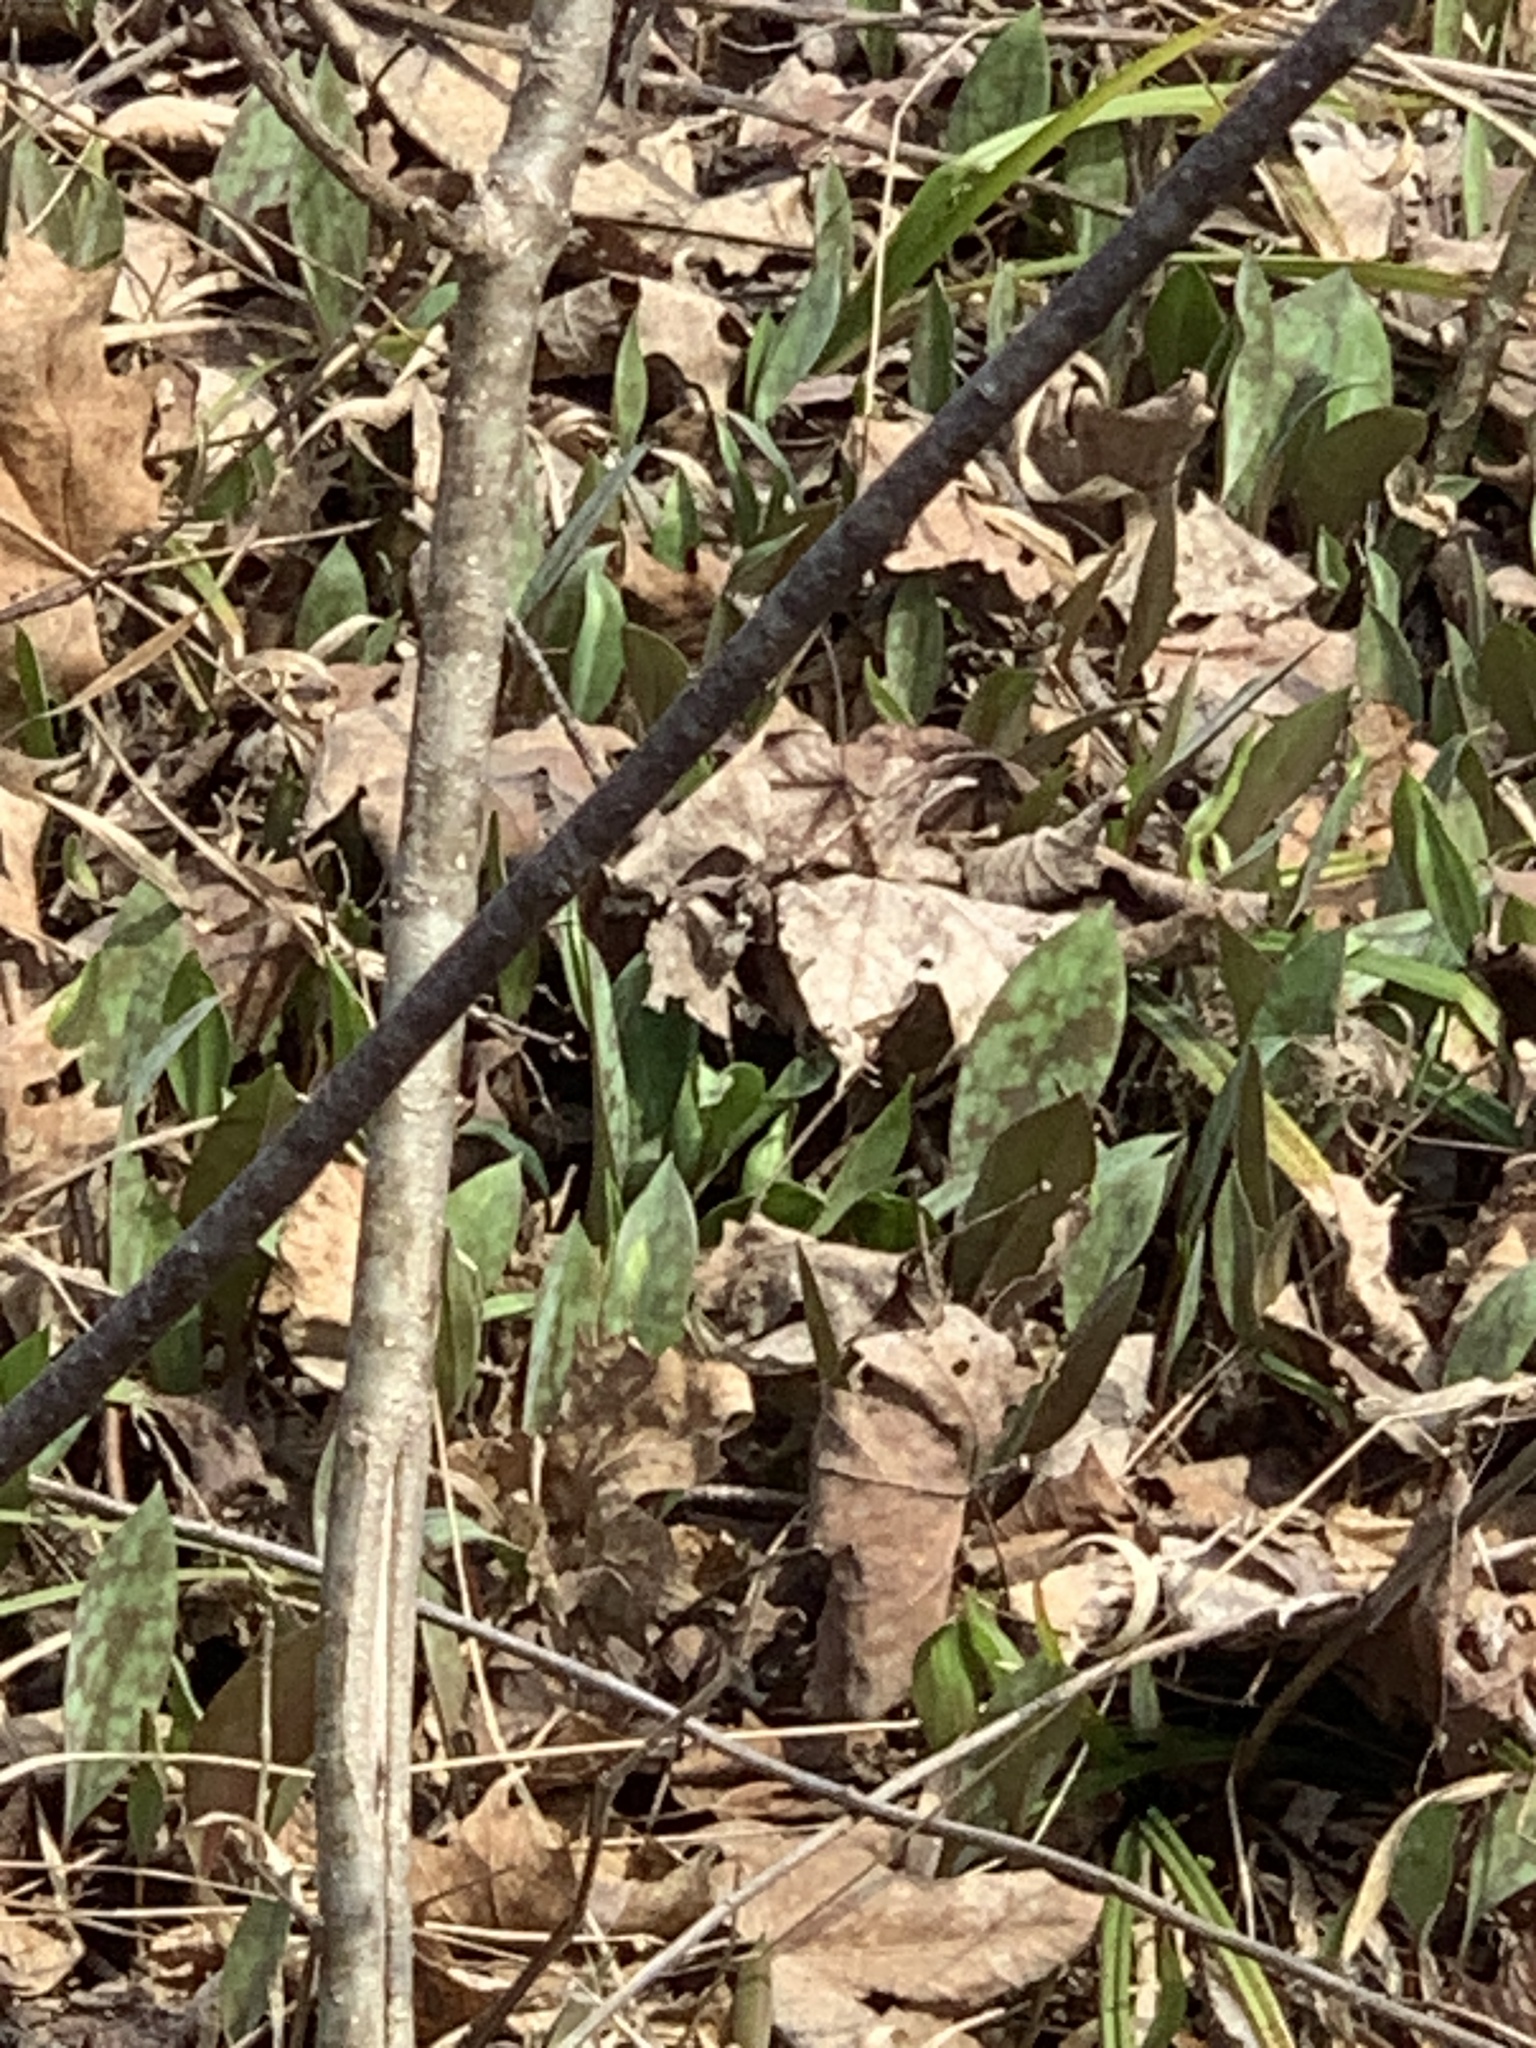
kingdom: Plantae
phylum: Tracheophyta
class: Liliopsida
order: Liliales
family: Liliaceae
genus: Erythronium
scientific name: Erythronium americanum
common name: Yellow adder's-tongue
